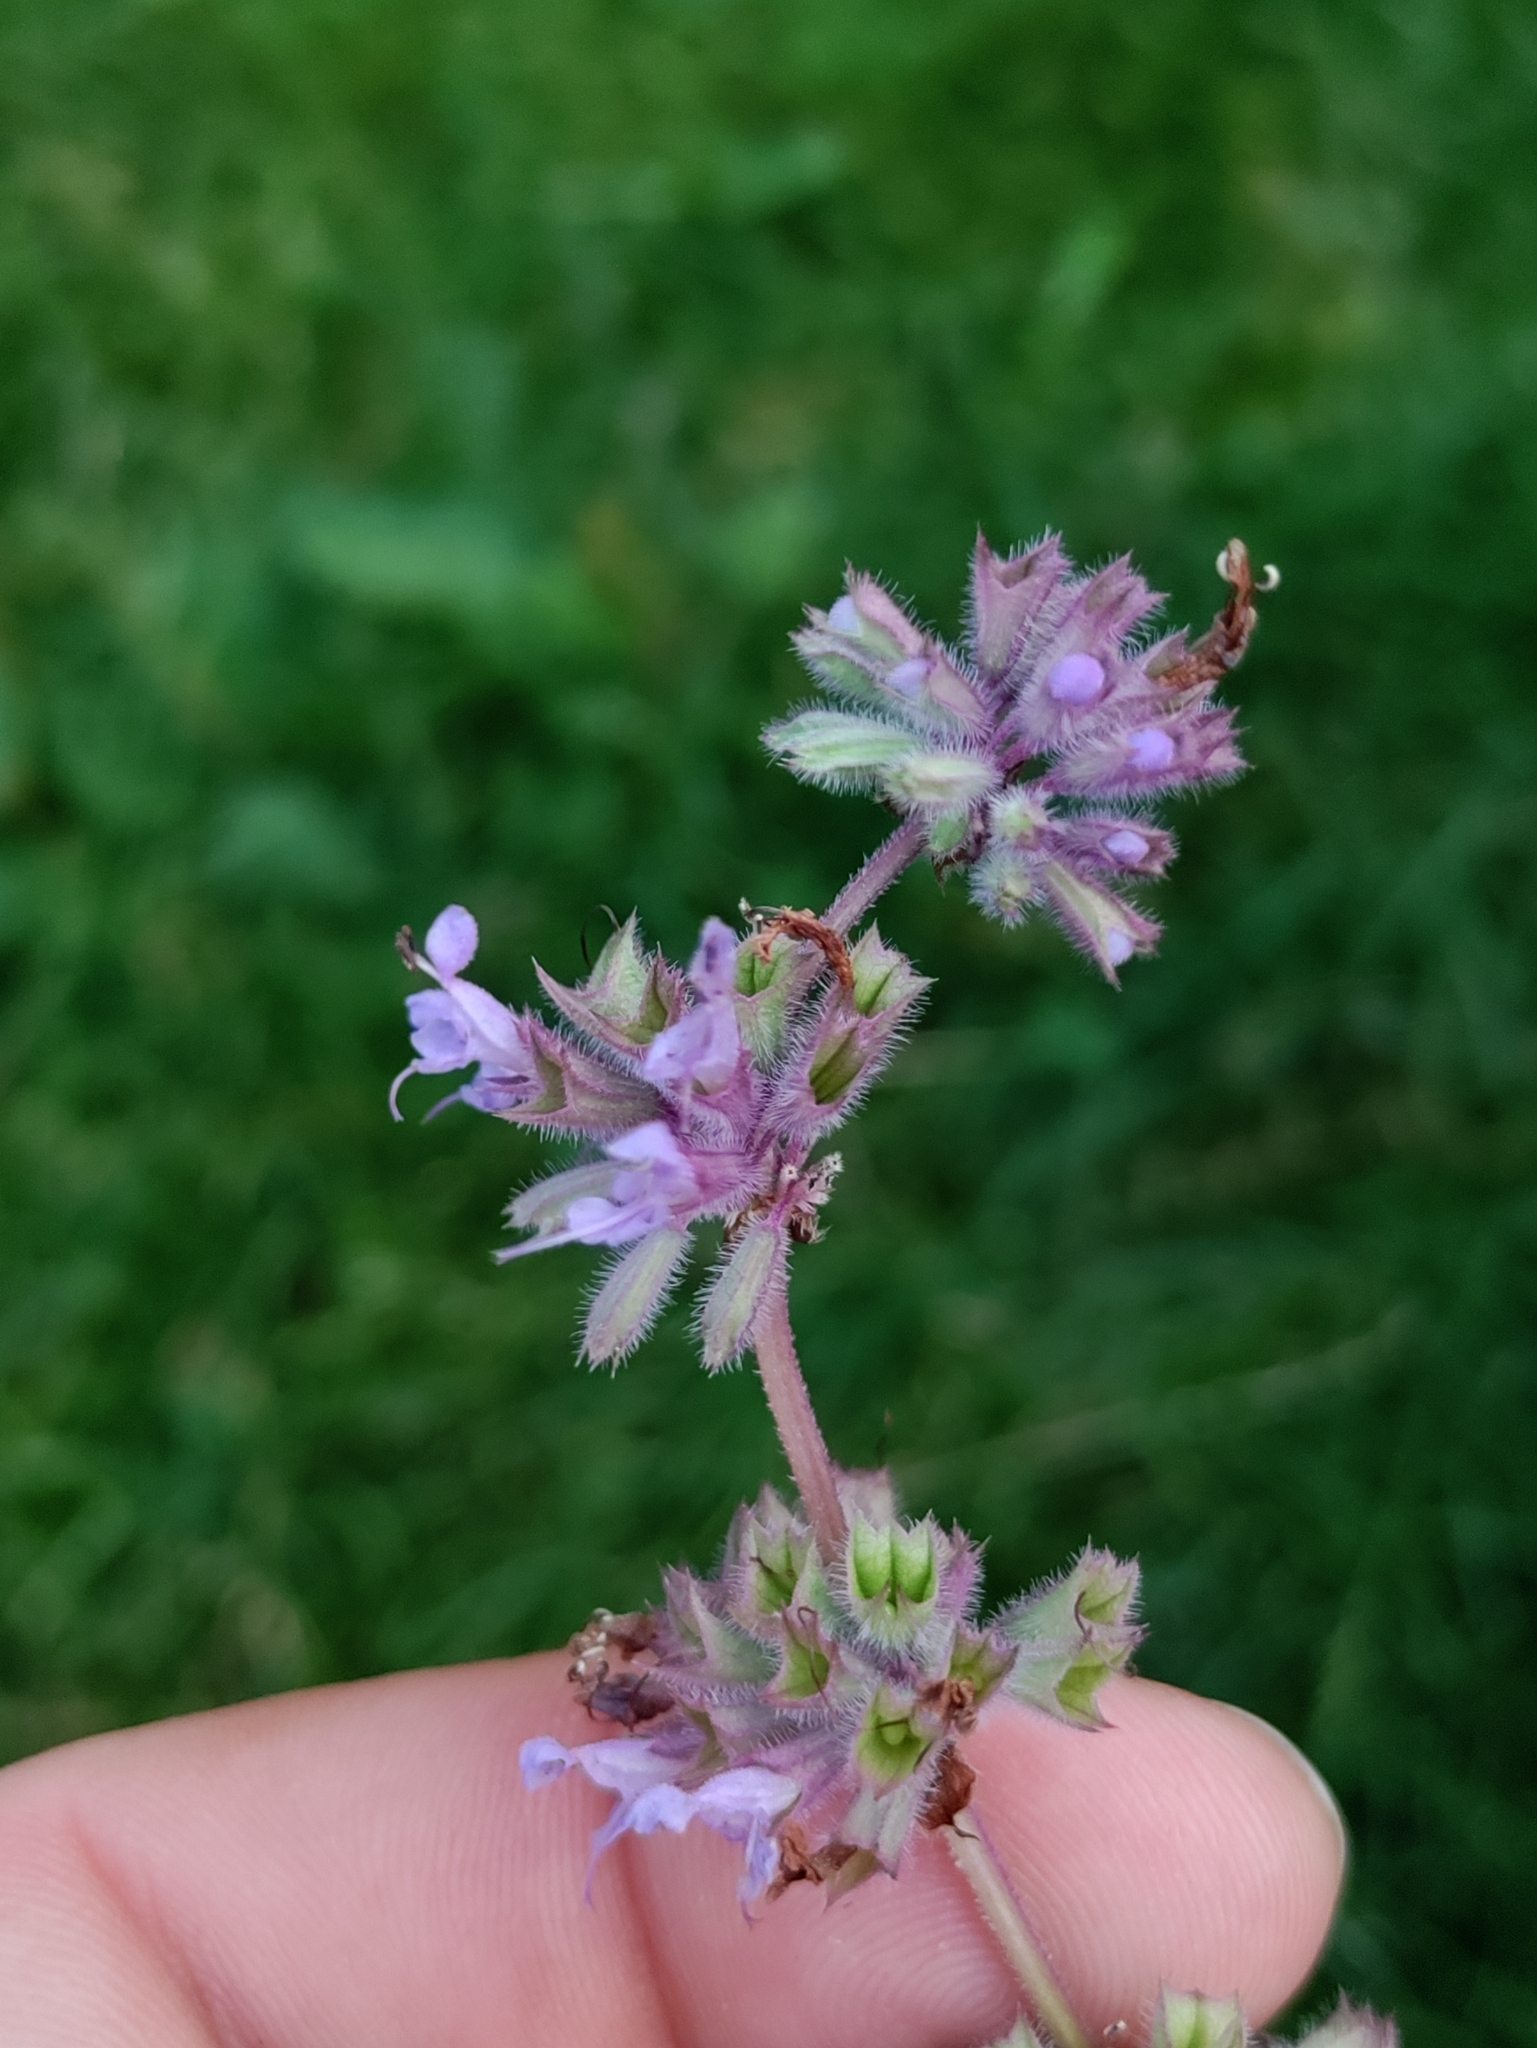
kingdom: Plantae
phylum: Tracheophyta
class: Magnoliopsida
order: Lamiales
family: Lamiaceae
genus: Salvia
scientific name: Salvia verticillata
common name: Whorled clary
